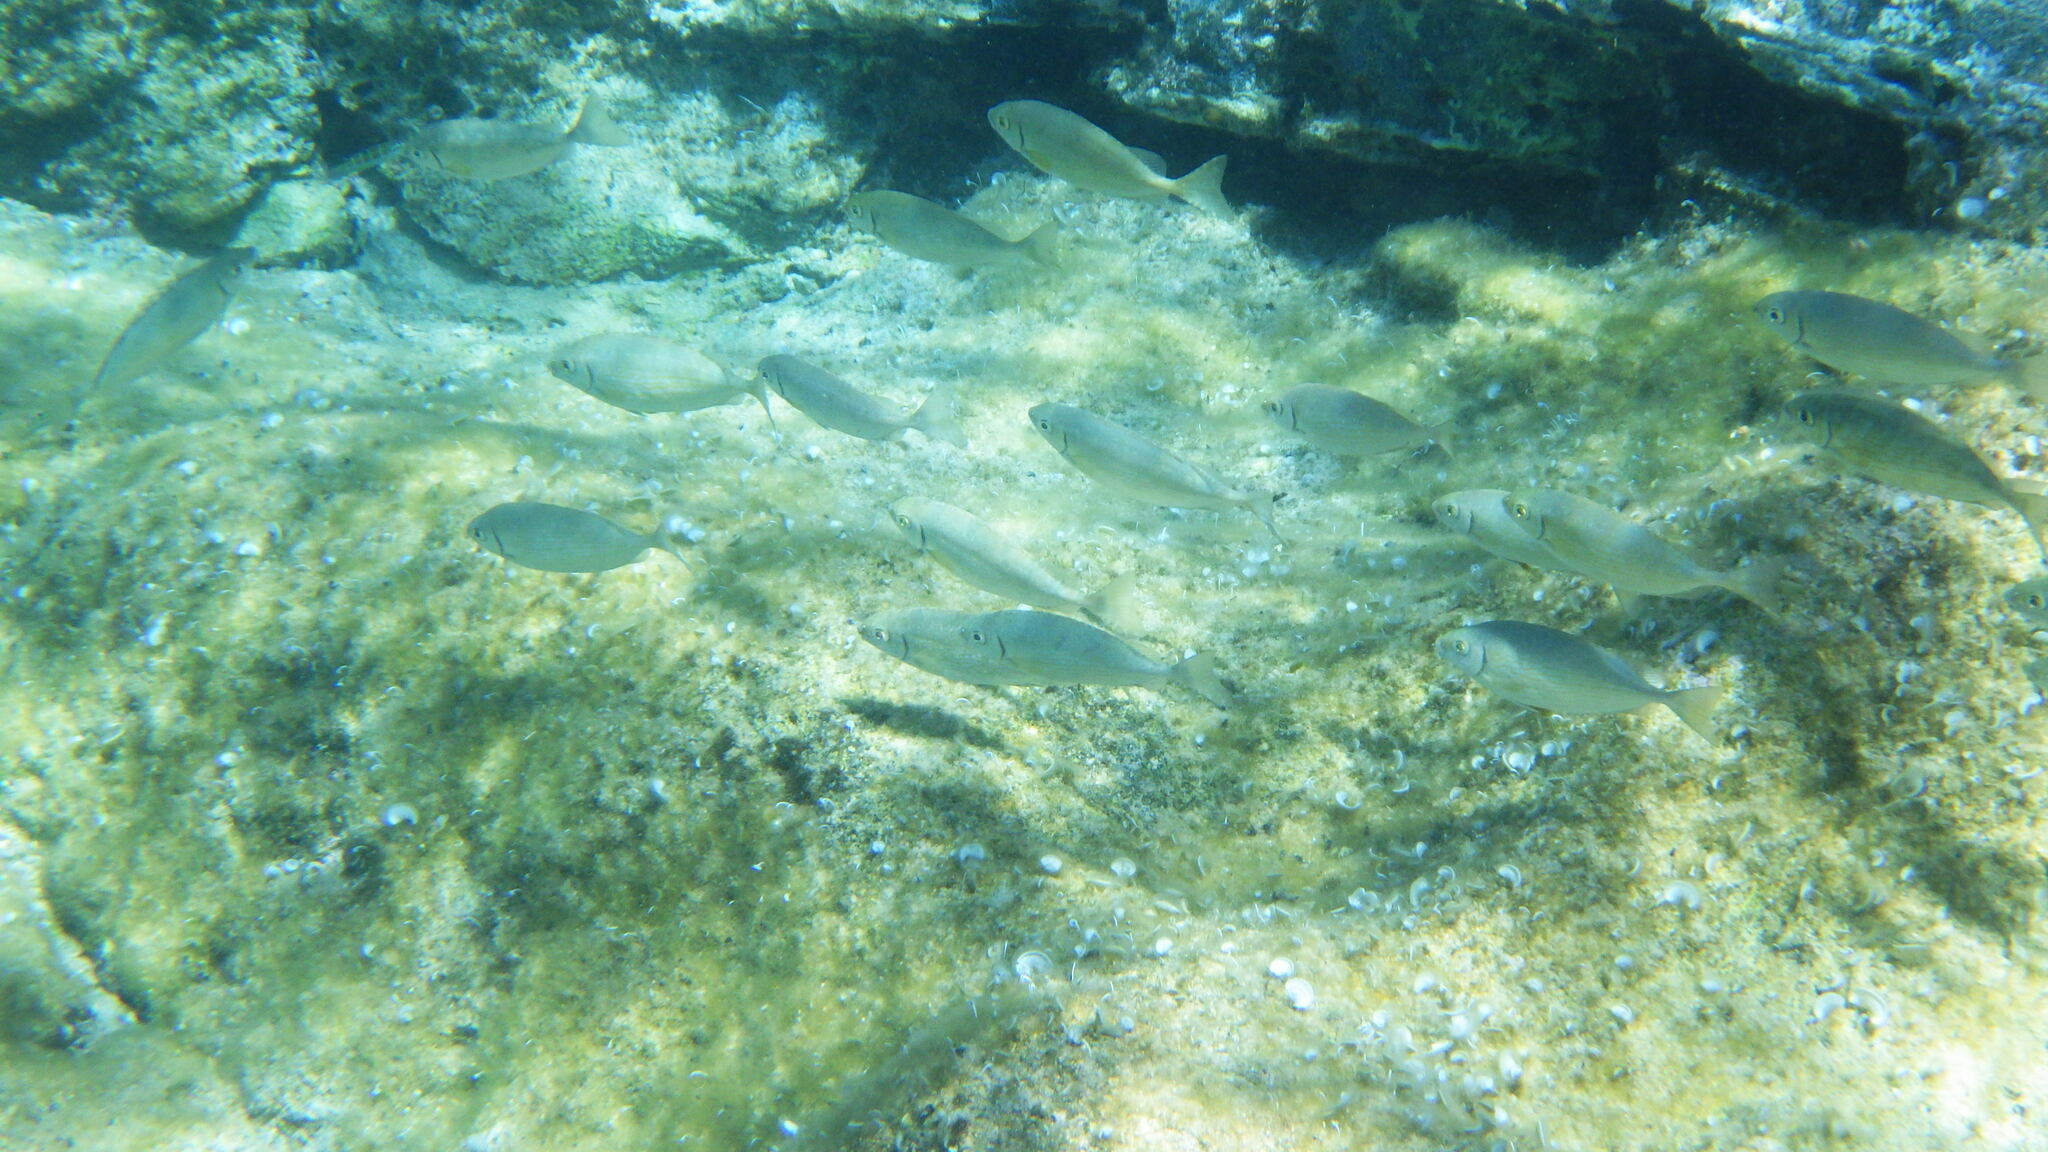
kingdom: Animalia
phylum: Chordata
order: Perciformes
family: Siganidae
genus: Siganus
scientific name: Siganus rivulatus
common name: Marbled spinefoot
